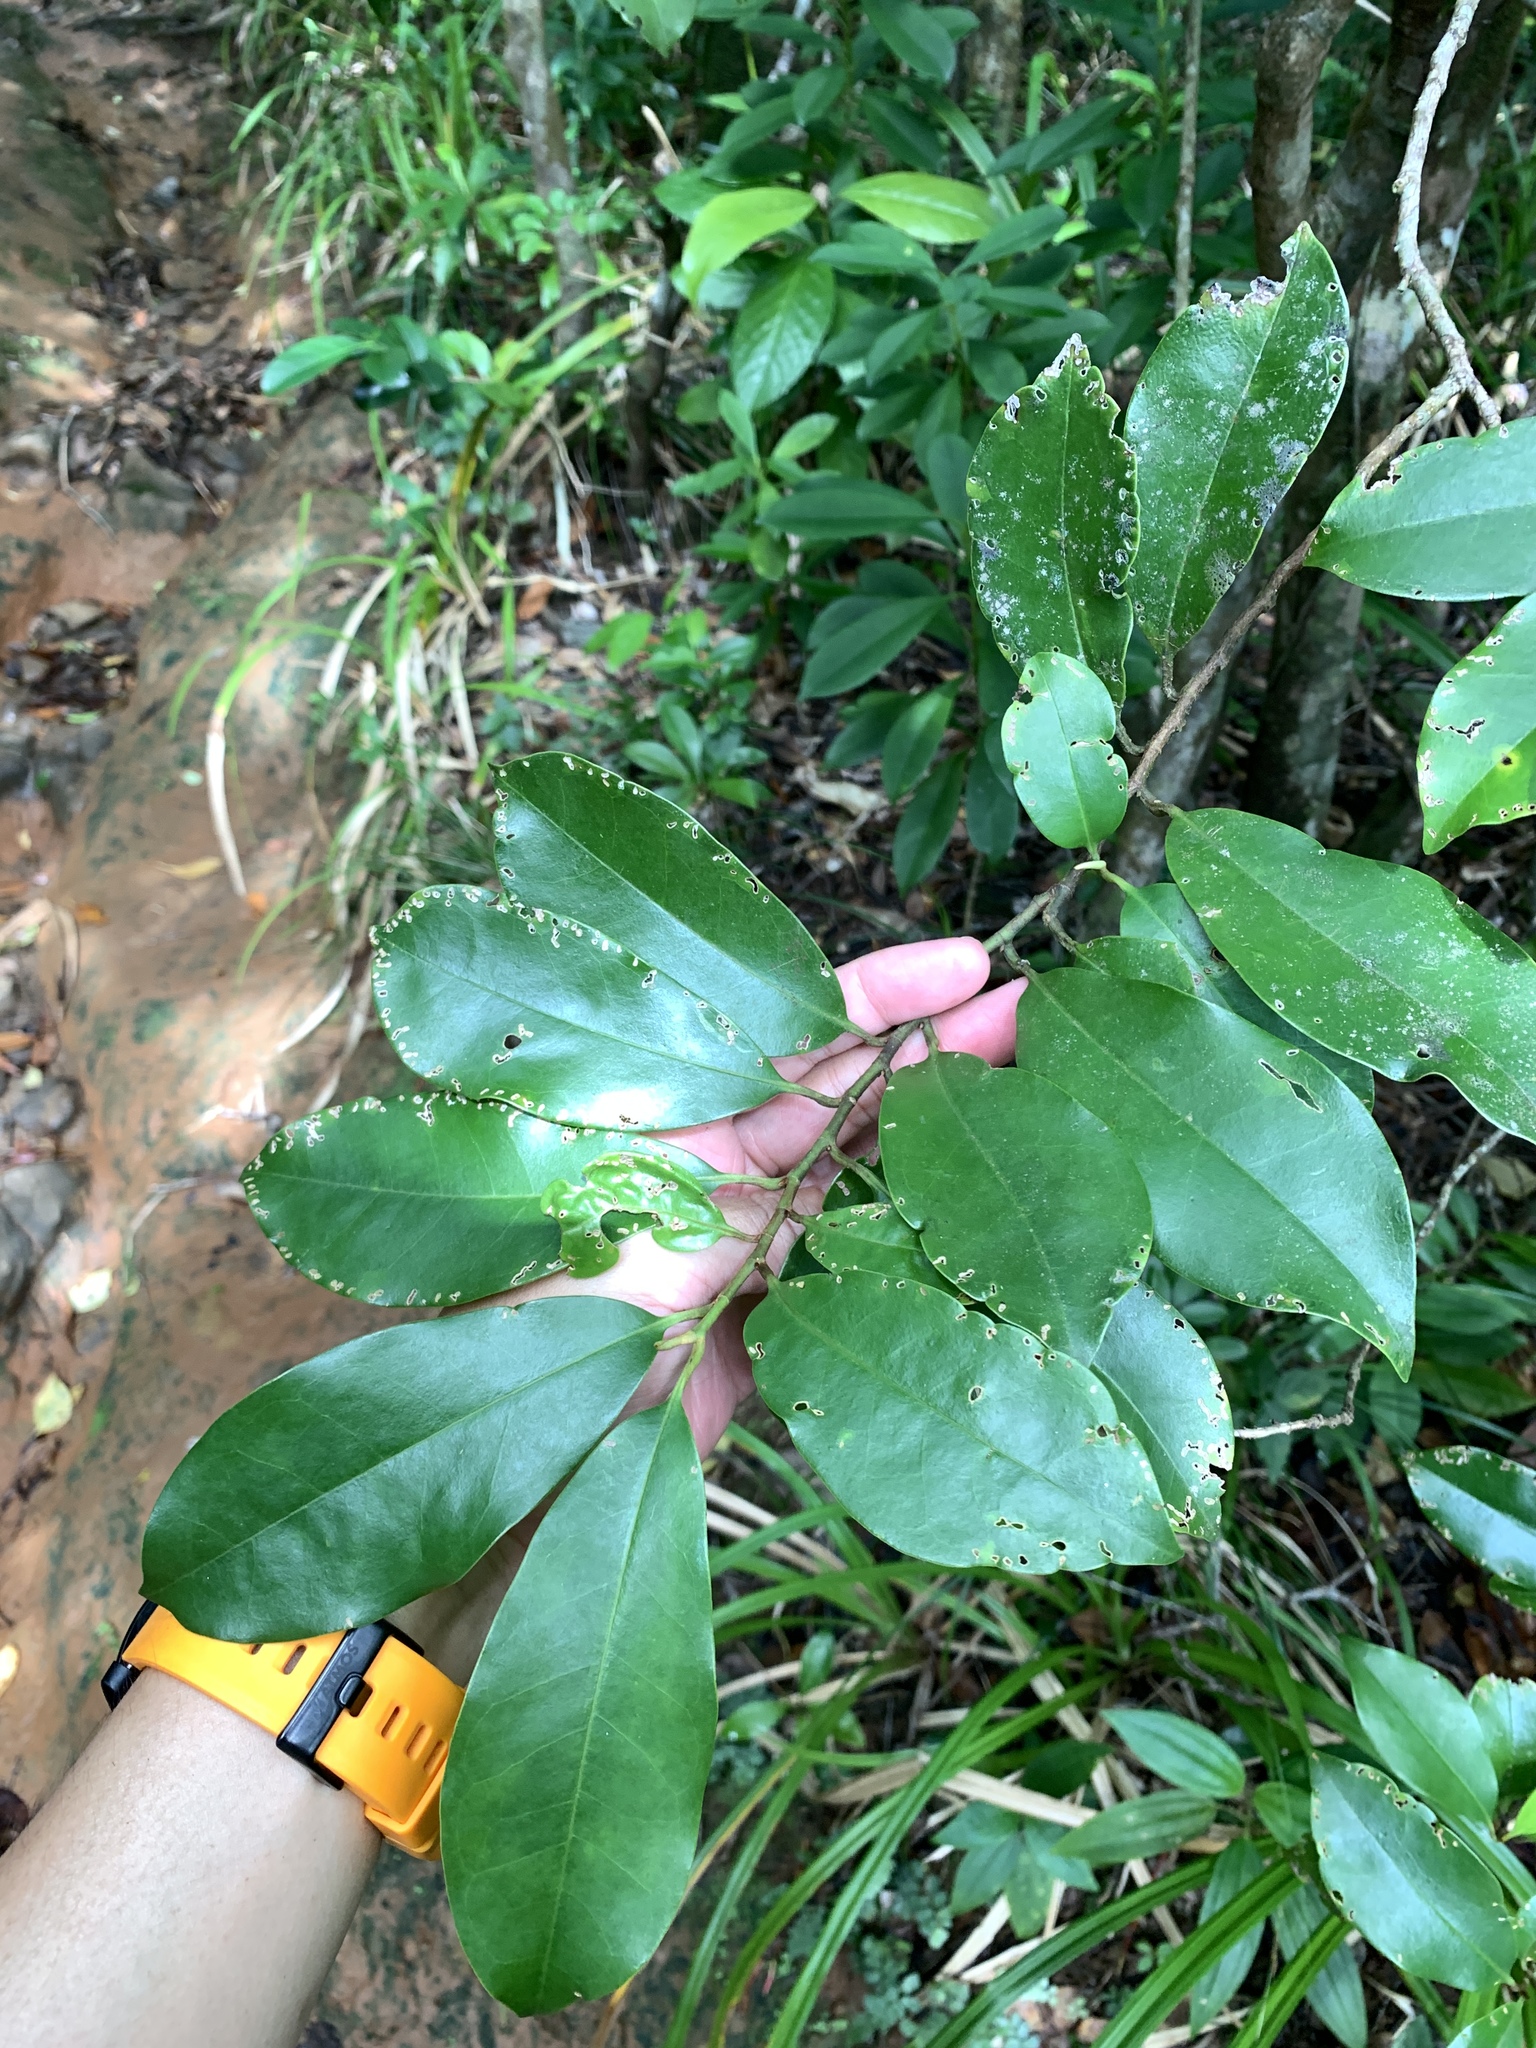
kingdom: Plantae
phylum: Tracheophyta
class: Magnoliopsida
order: Magnoliales
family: Magnoliaceae
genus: Magnolia
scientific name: Magnolia compressa
